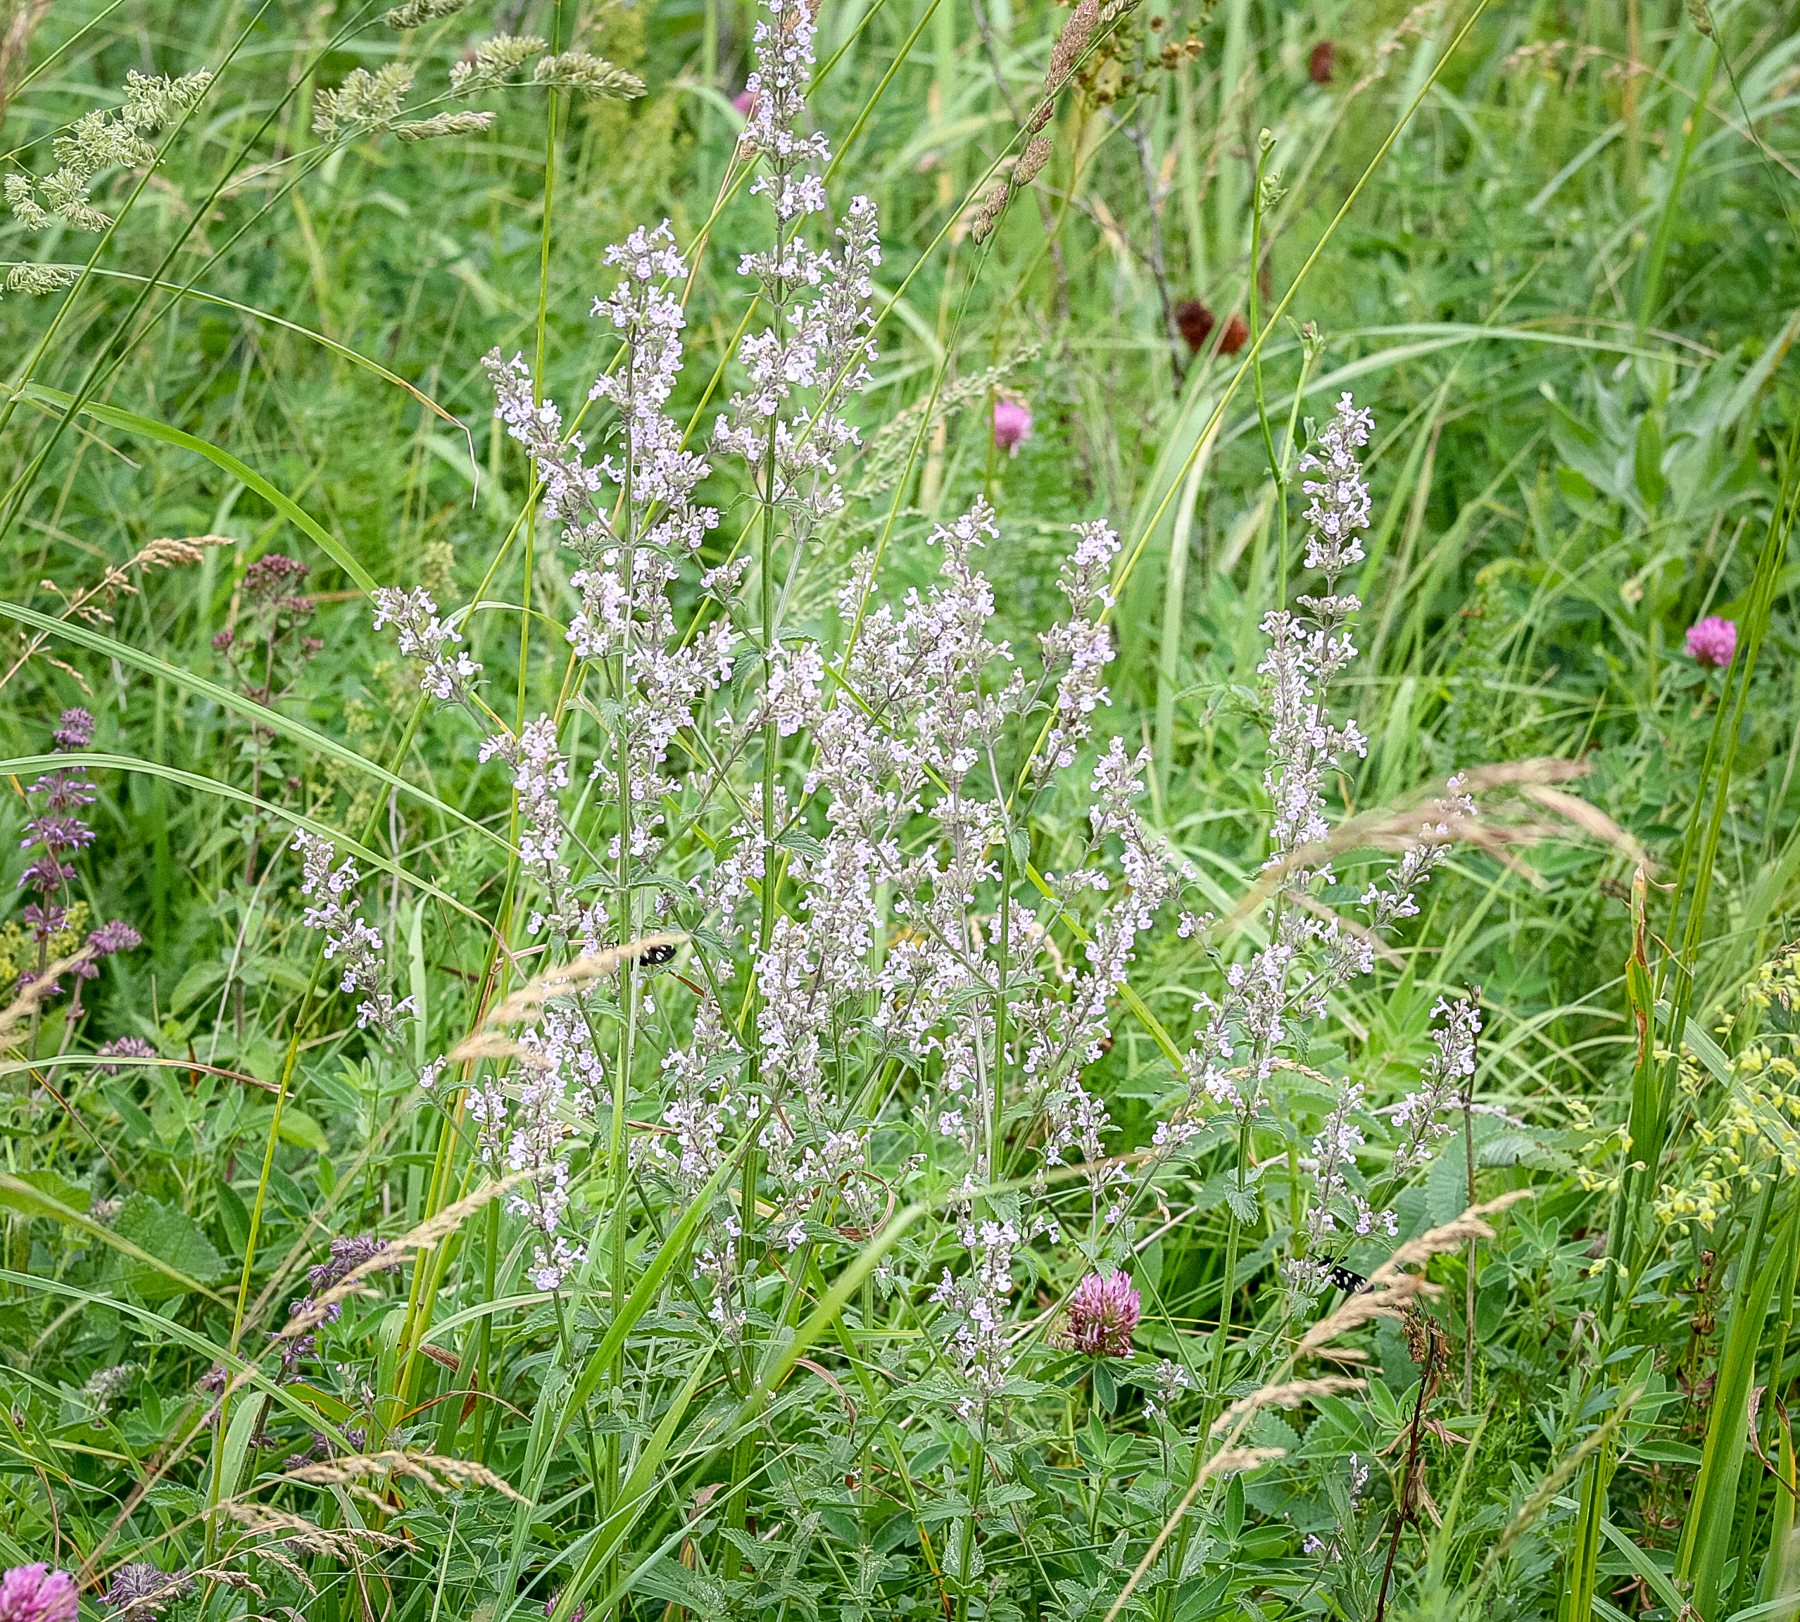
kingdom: Plantae
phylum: Tracheophyta
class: Magnoliopsida
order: Lamiales
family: Lamiaceae
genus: Nepeta
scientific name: Nepeta nuda
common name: Hairless catmint
